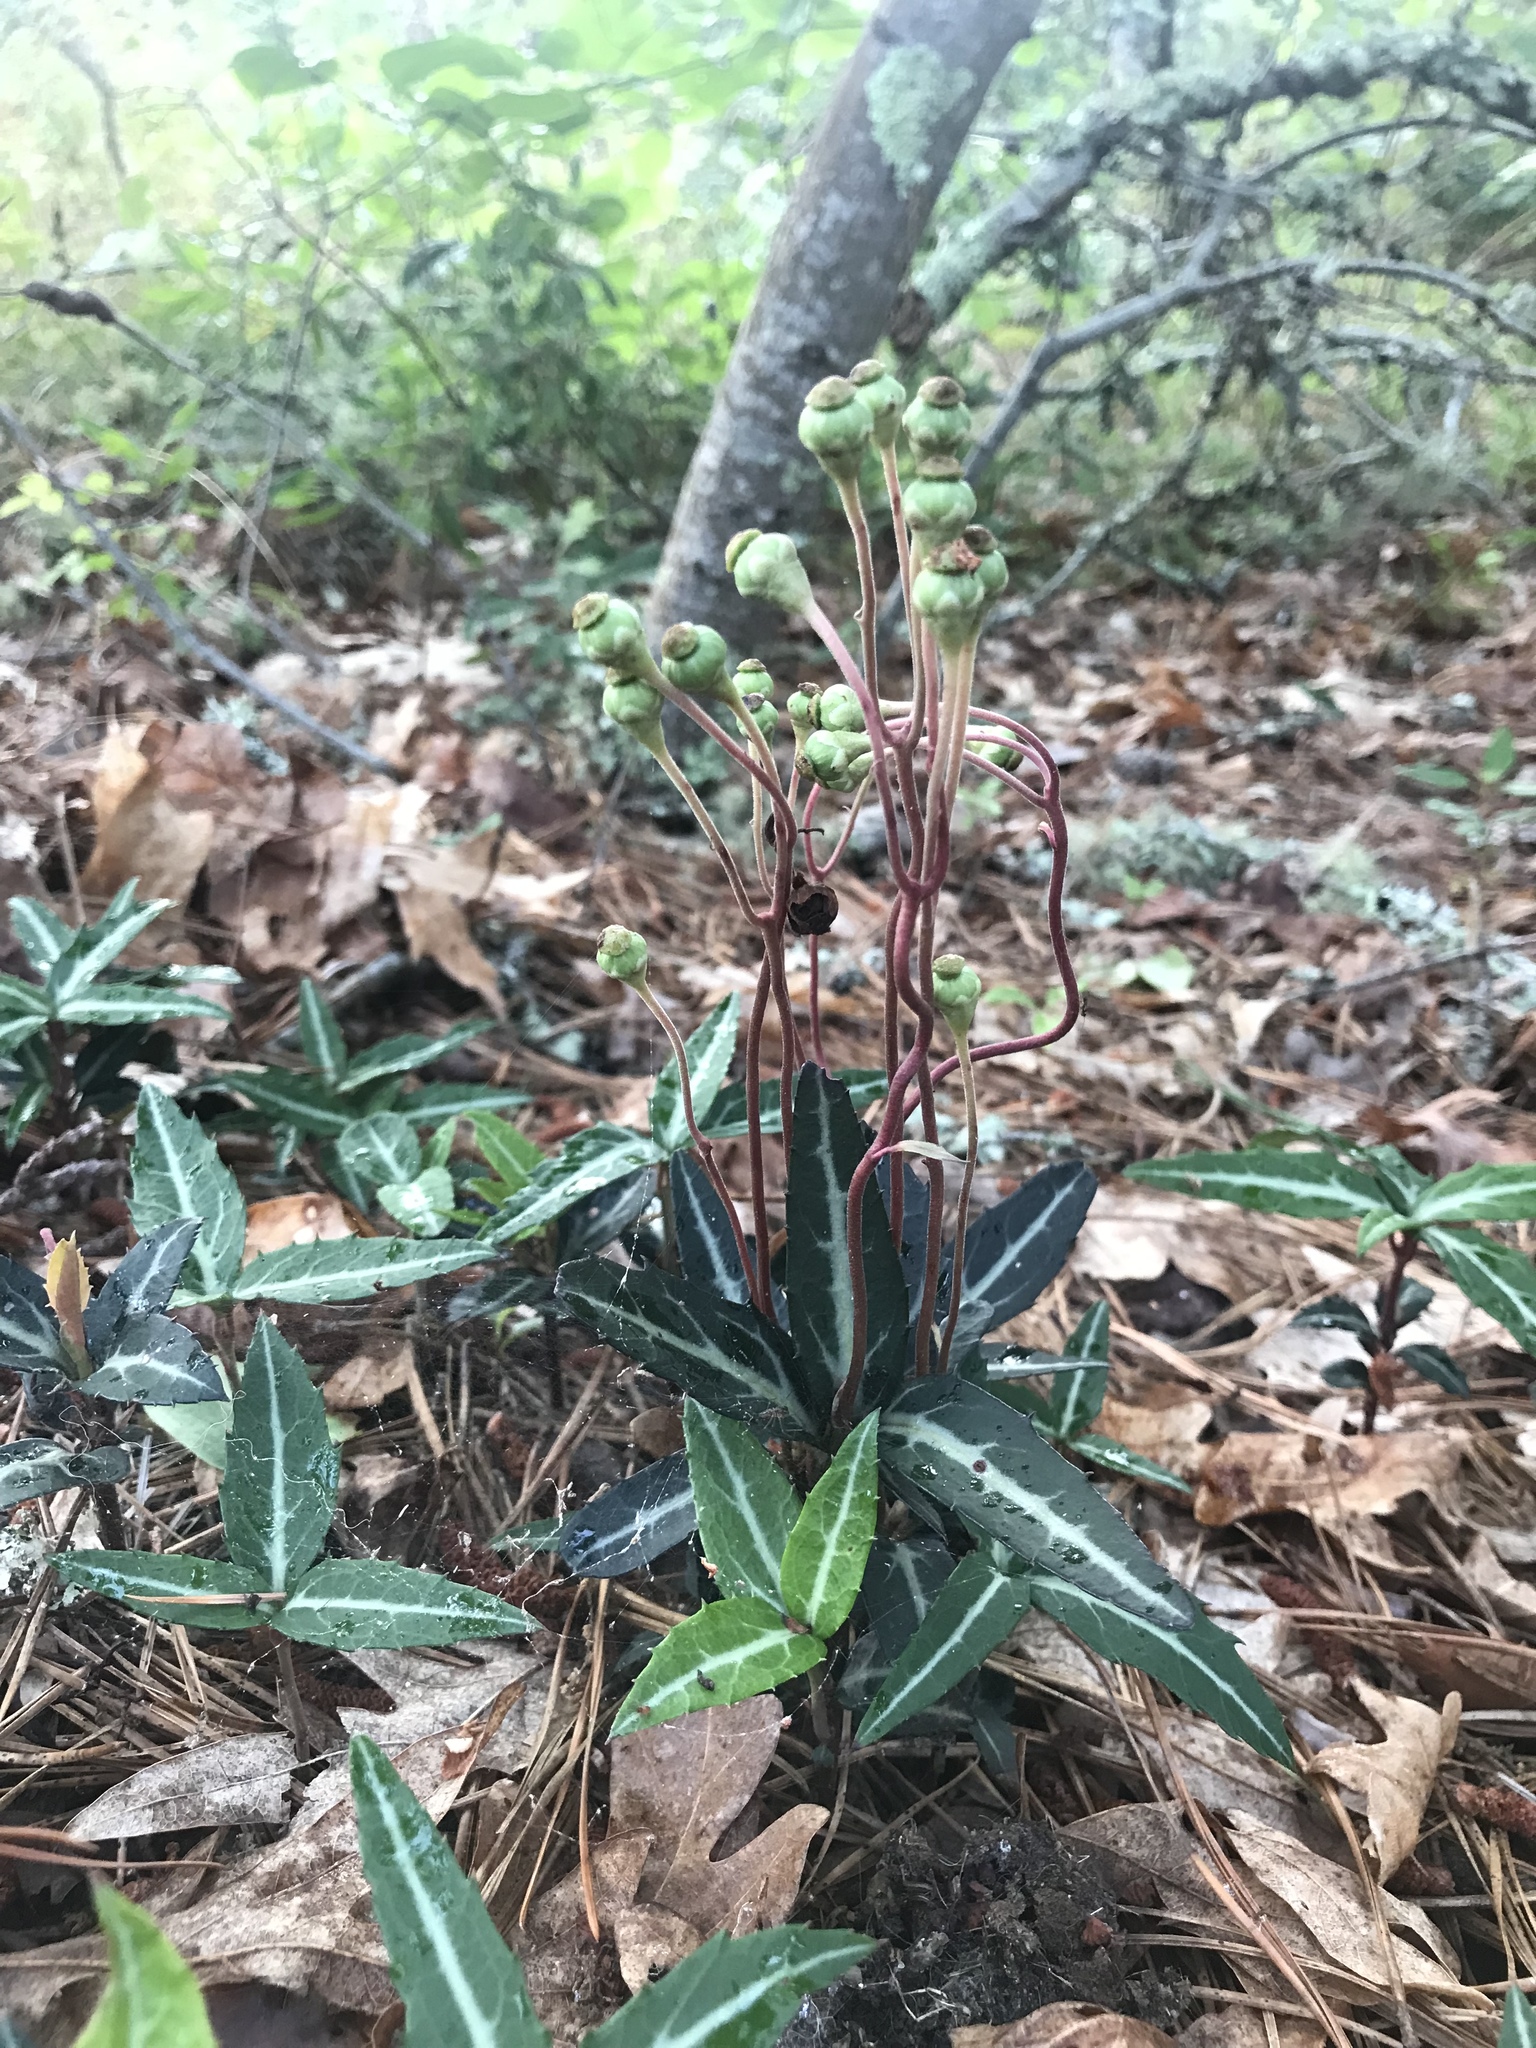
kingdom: Plantae
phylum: Tracheophyta
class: Magnoliopsida
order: Ericales
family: Ericaceae
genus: Chimaphila
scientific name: Chimaphila maculata
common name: Spotted pipsissewa
